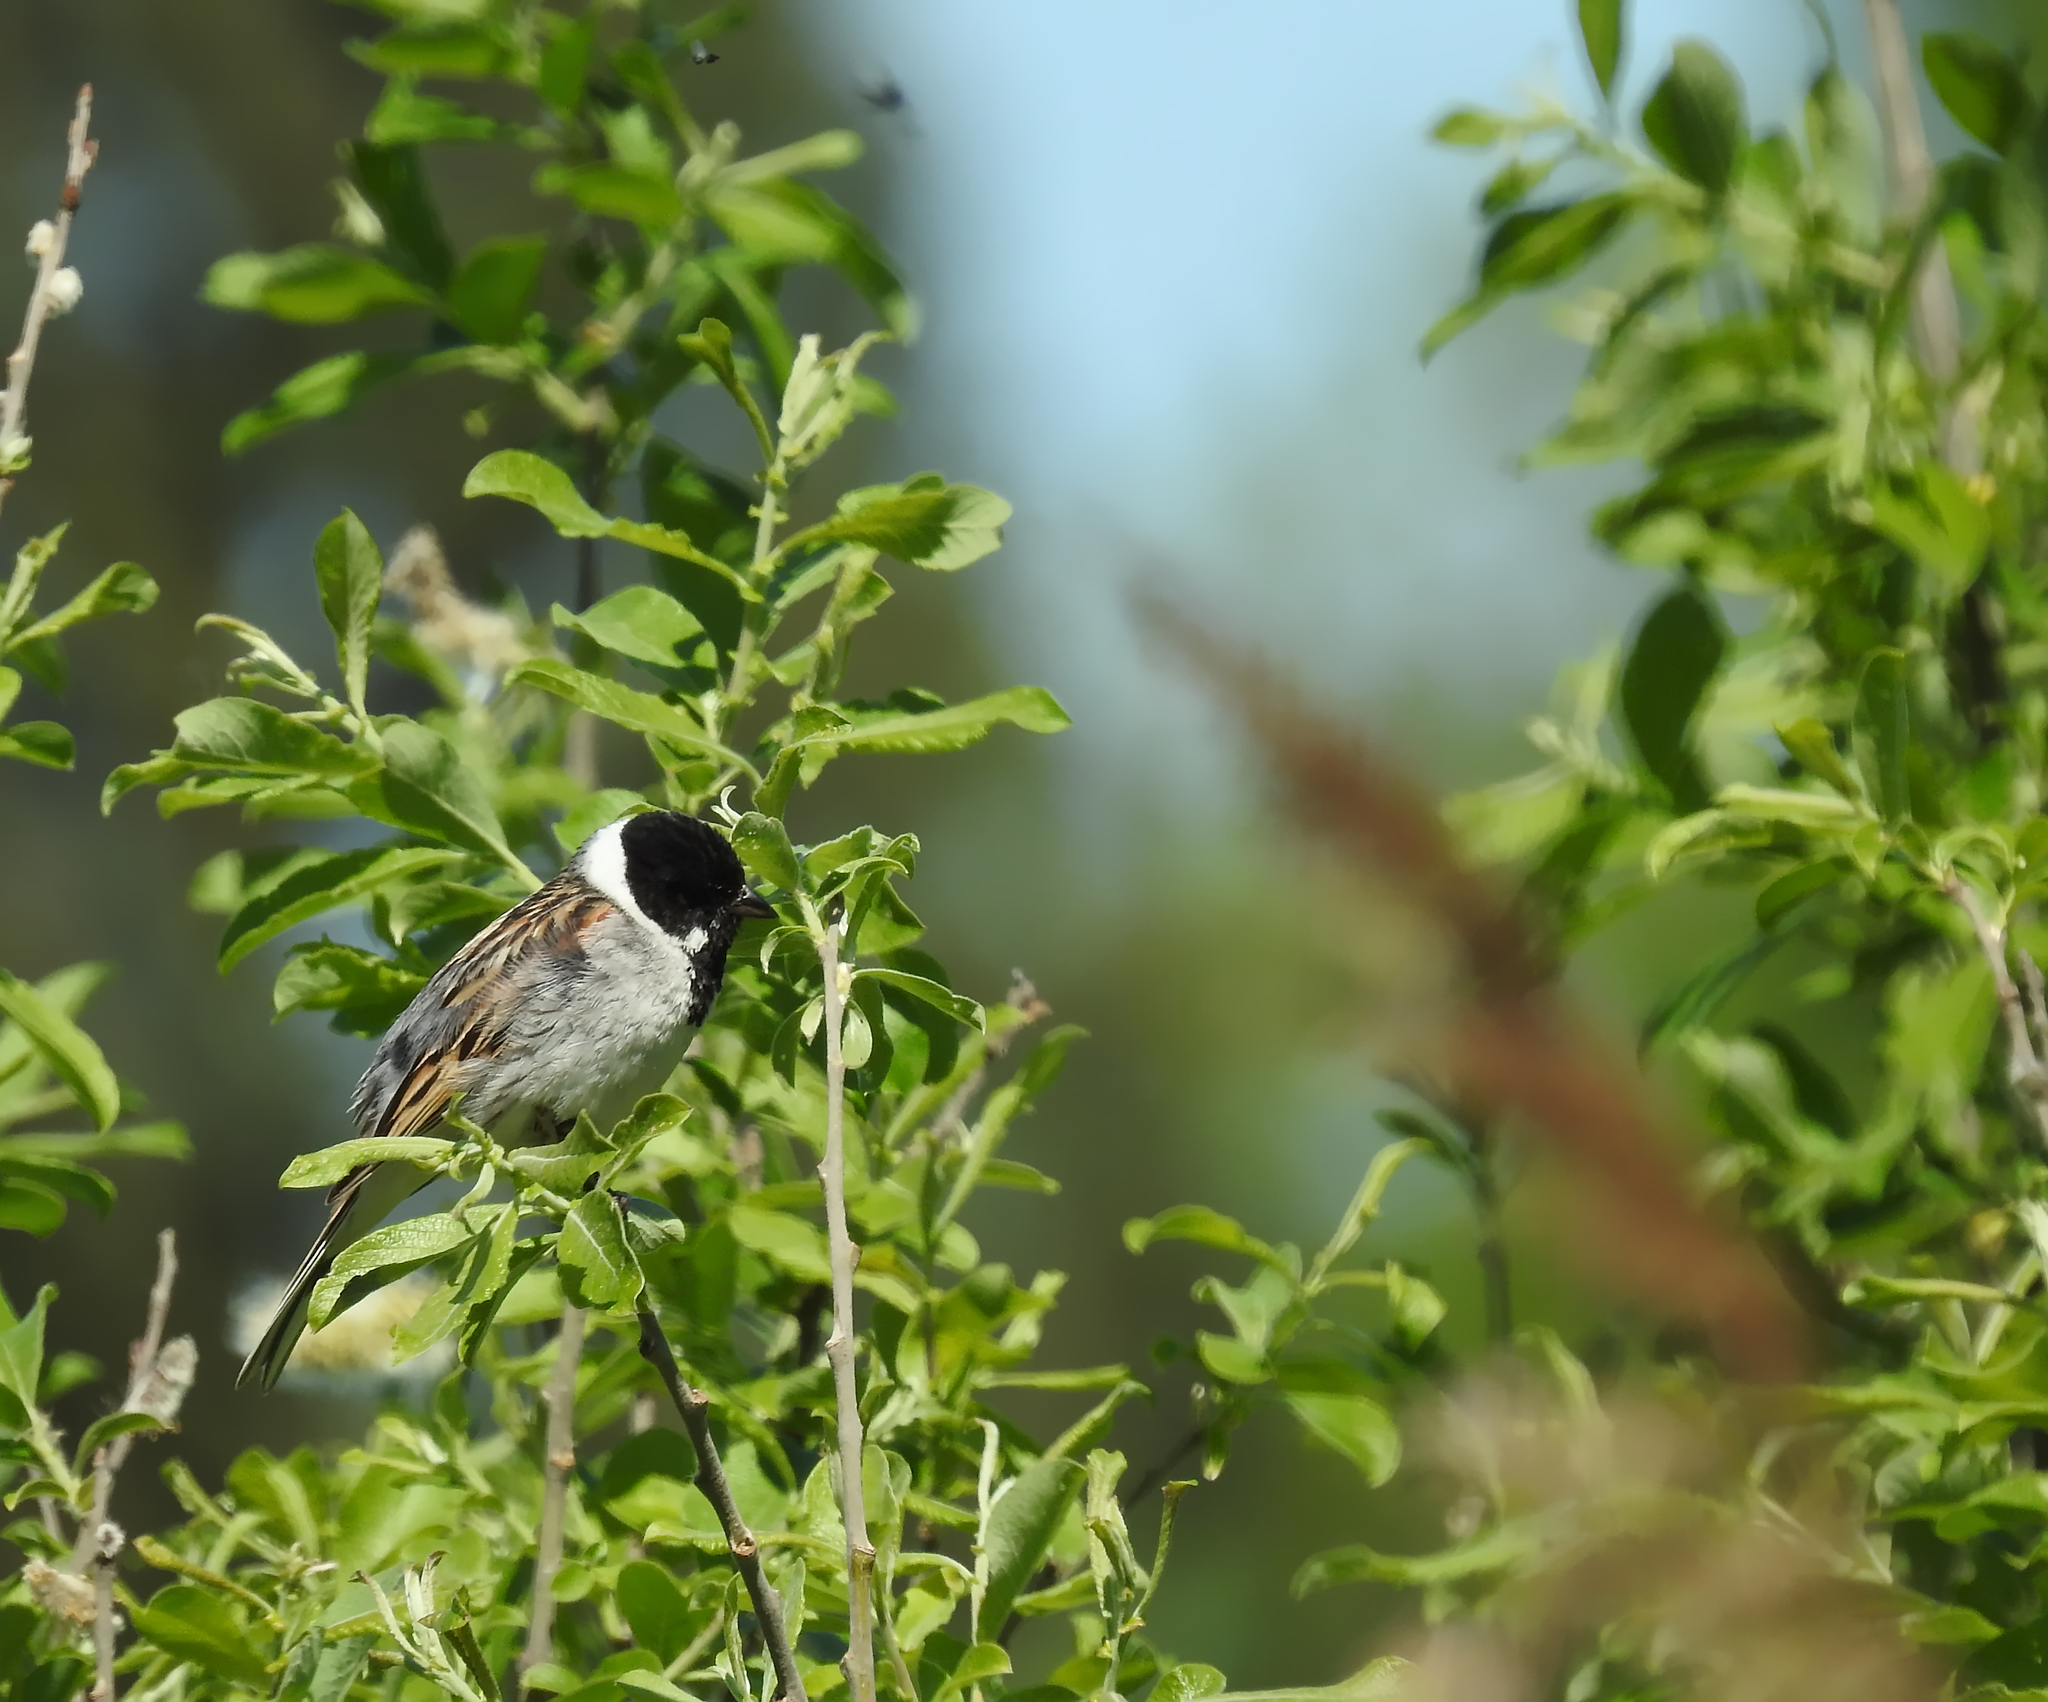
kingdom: Animalia
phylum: Chordata
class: Aves
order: Passeriformes
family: Emberizidae
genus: Emberiza
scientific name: Emberiza schoeniclus
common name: Reed bunting
